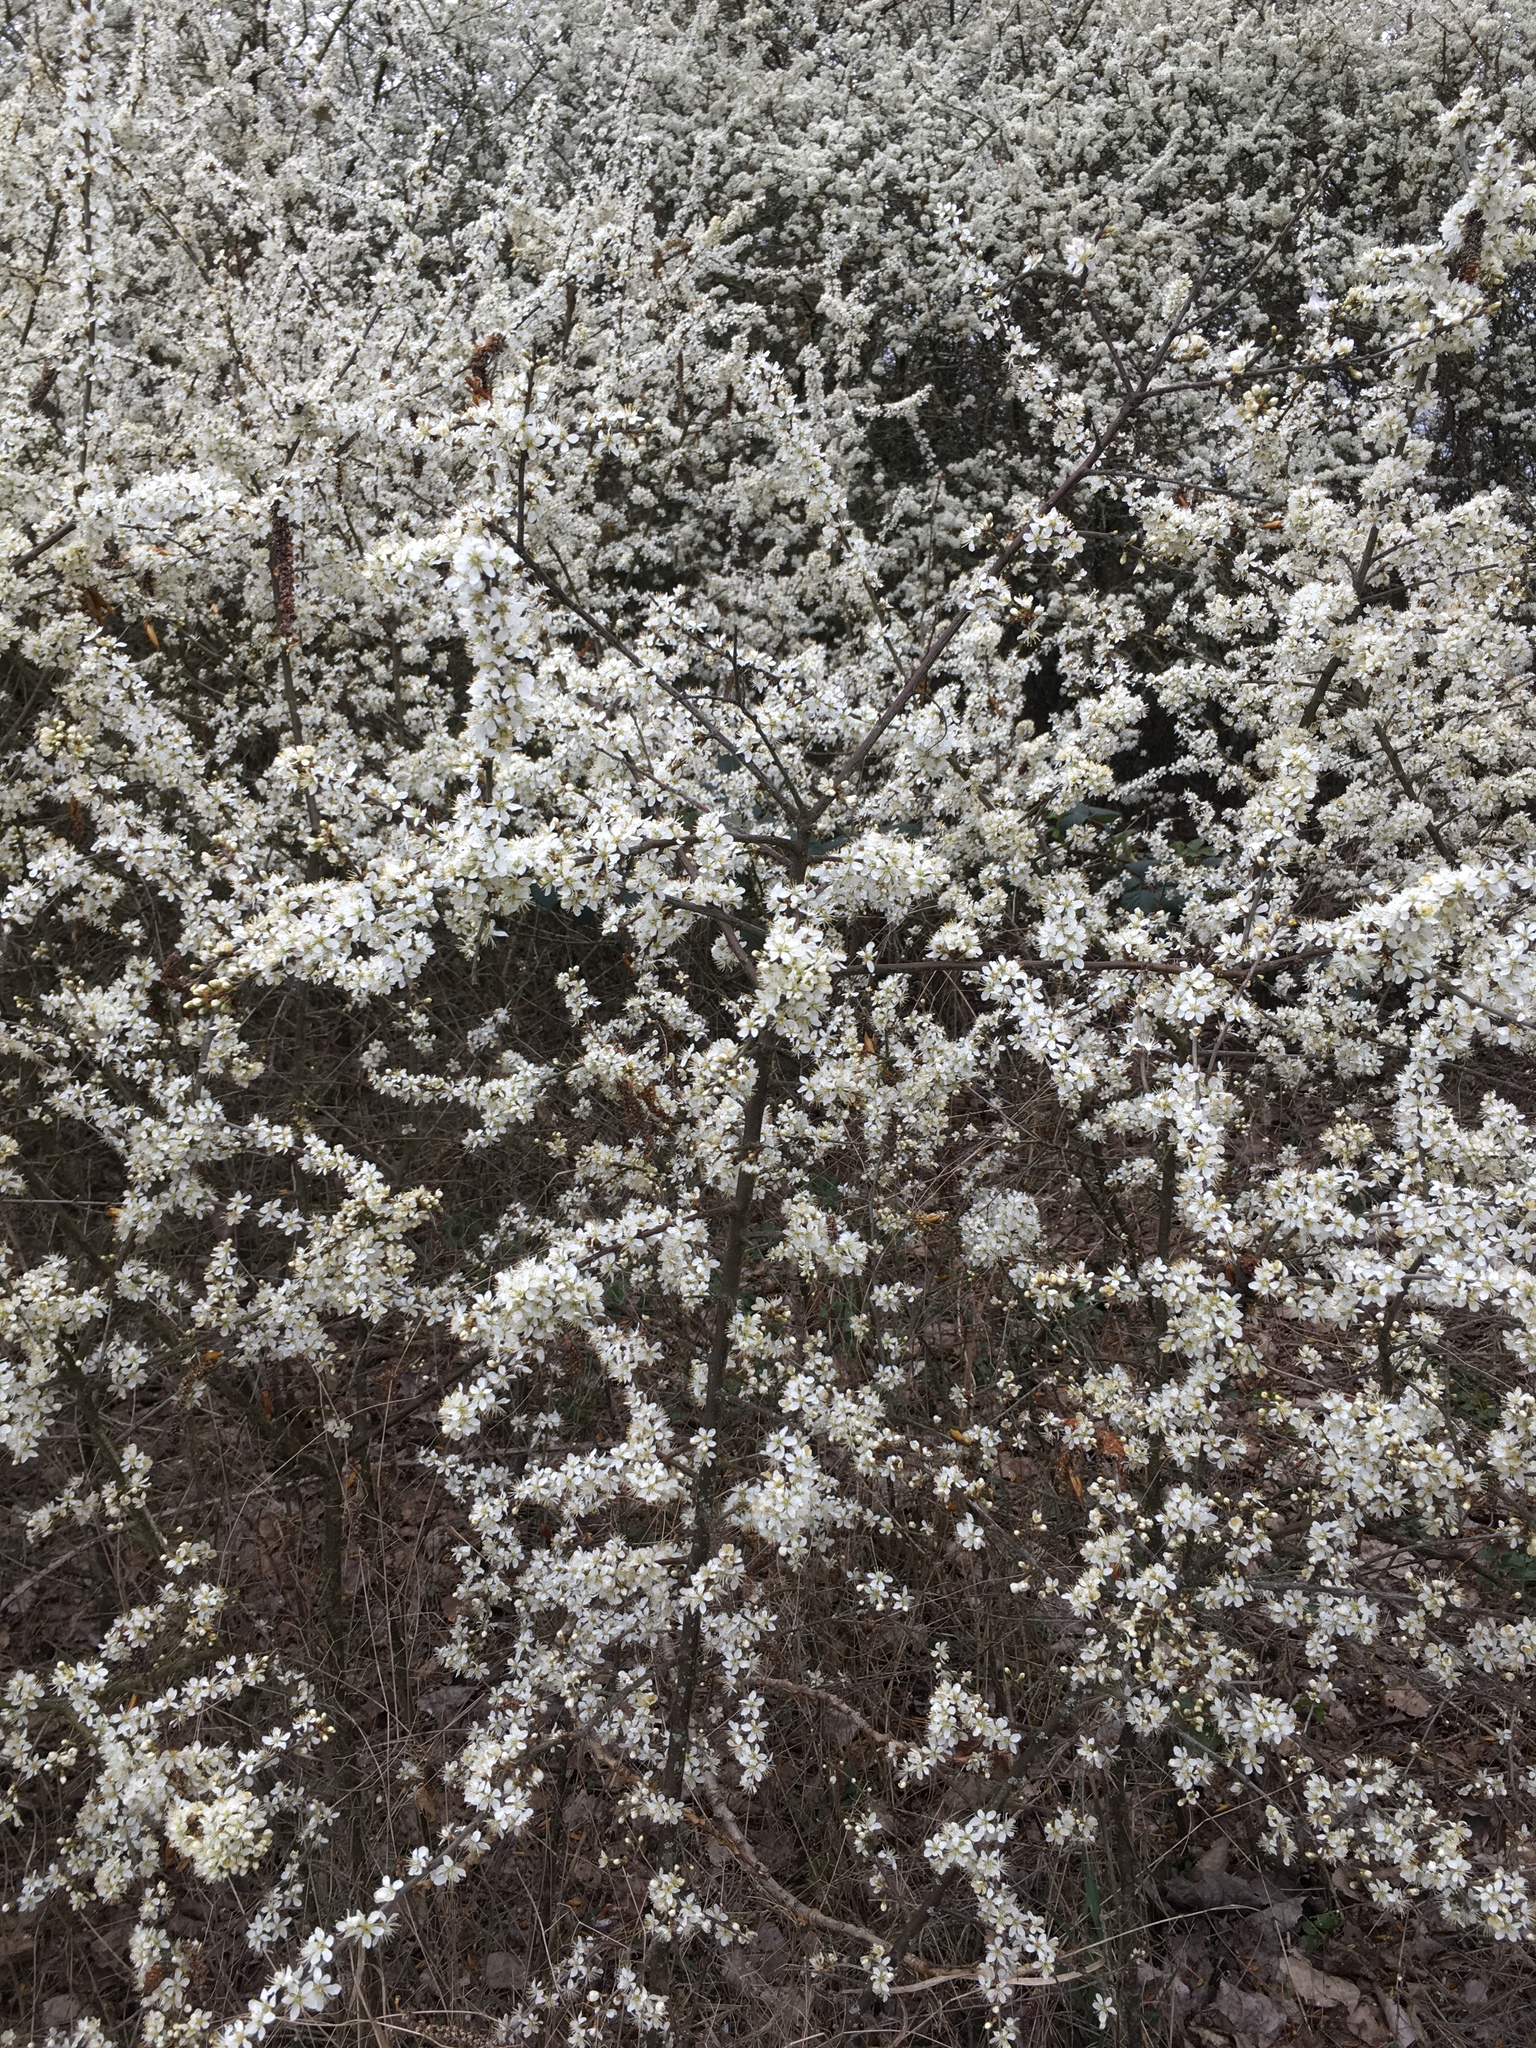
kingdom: Plantae
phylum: Tracheophyta
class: Magnoliopsida
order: Rosales
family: Rosaceae
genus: Prunus
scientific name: Prunus spinosa
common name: Blackthorn
